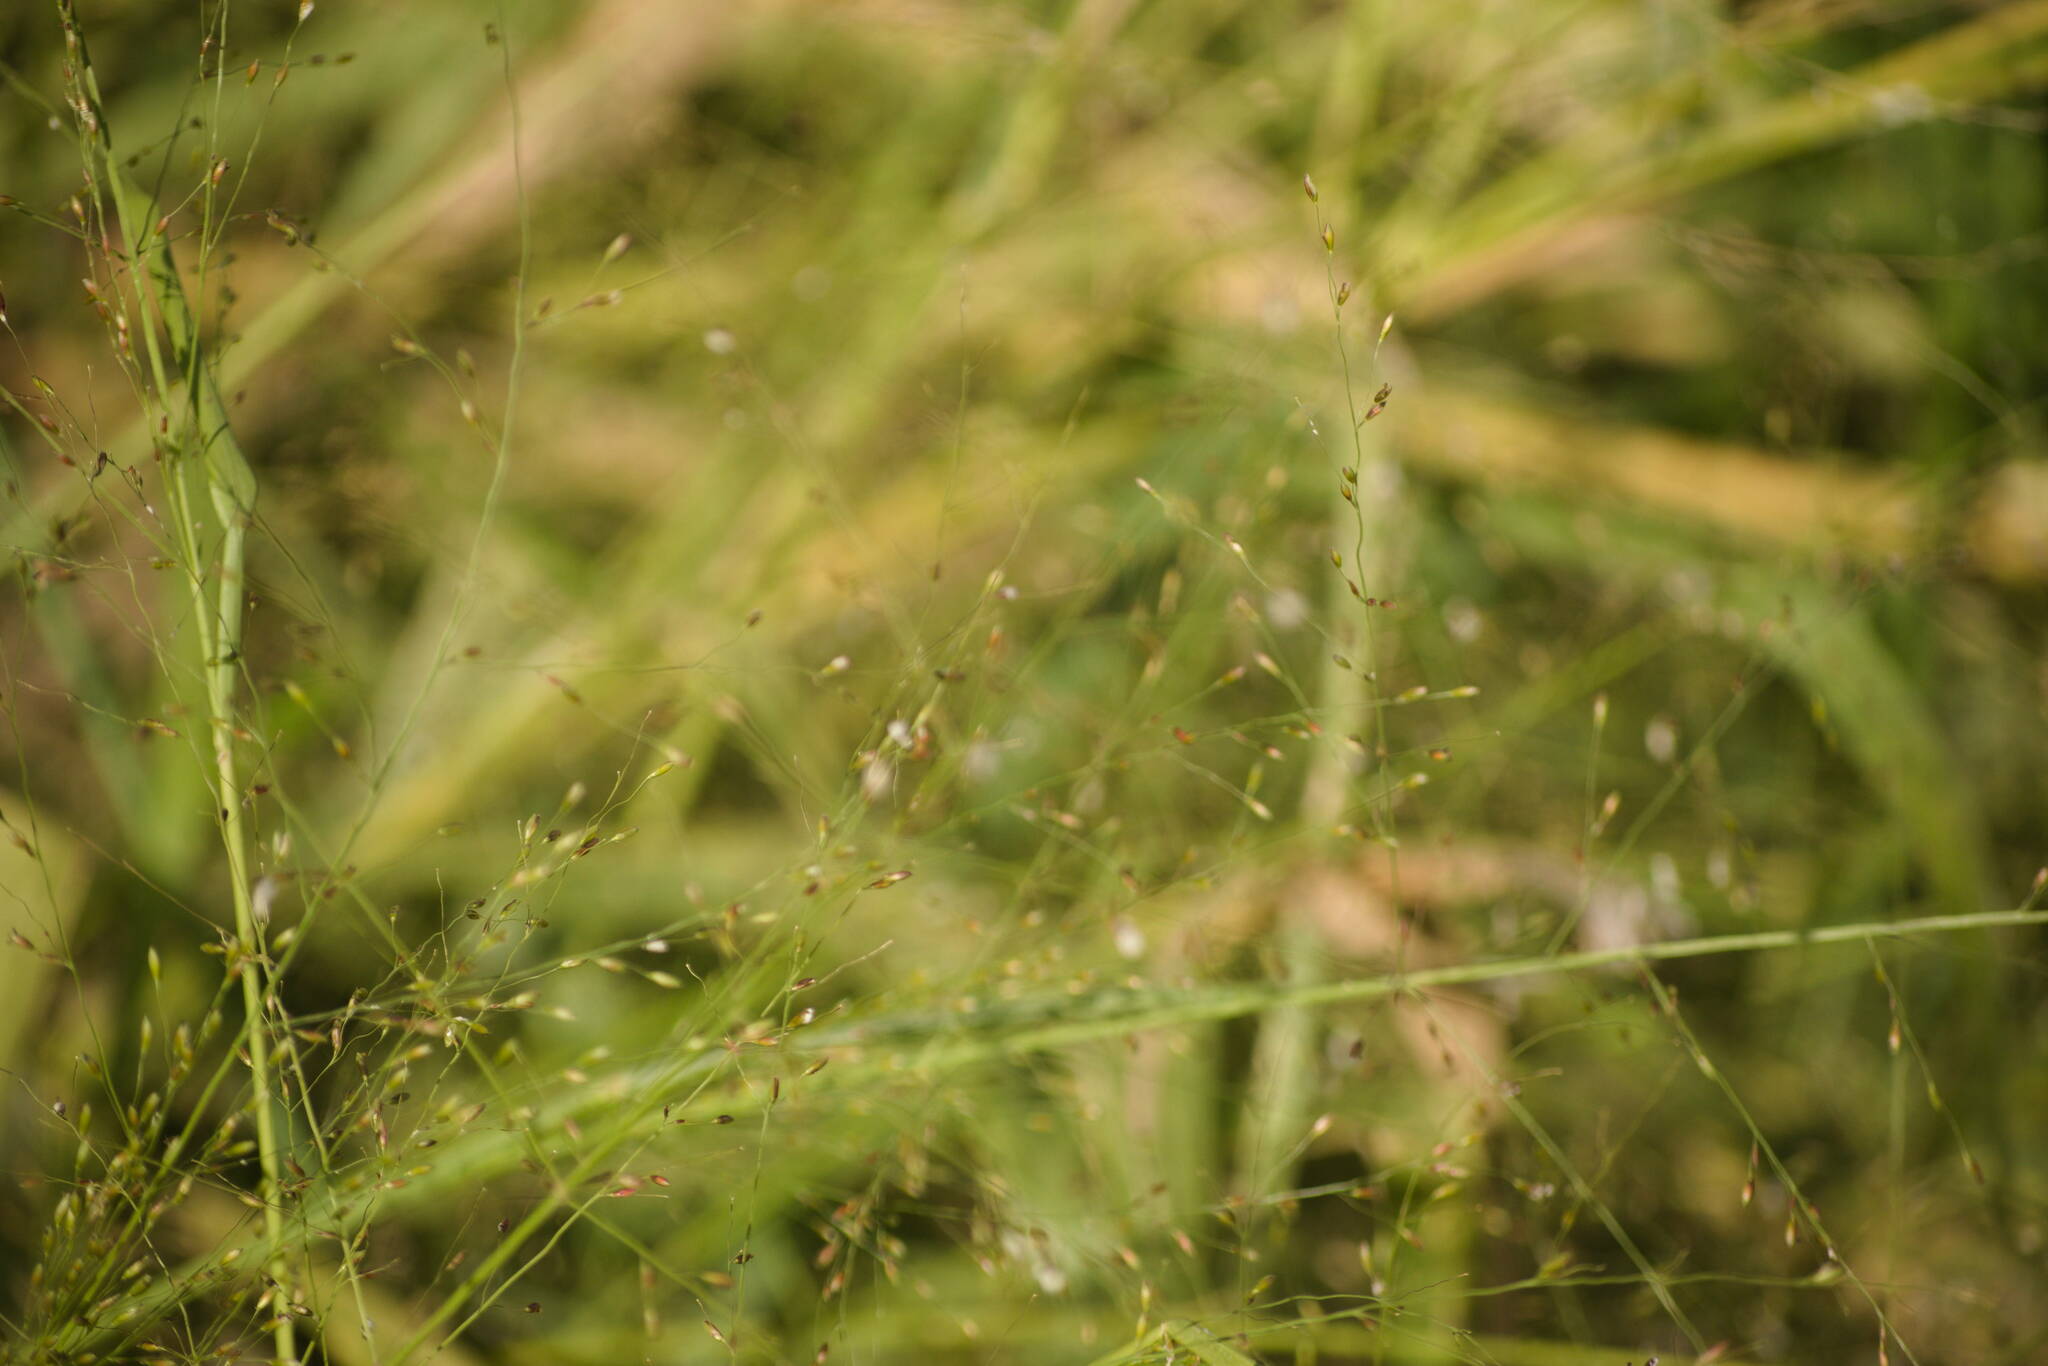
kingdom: Plantae
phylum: Tracheophyta
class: Liliopsida
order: Poales
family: Poaceae
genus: Megathyrsus
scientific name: Megathyrsus maximus
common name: Guineagrass
